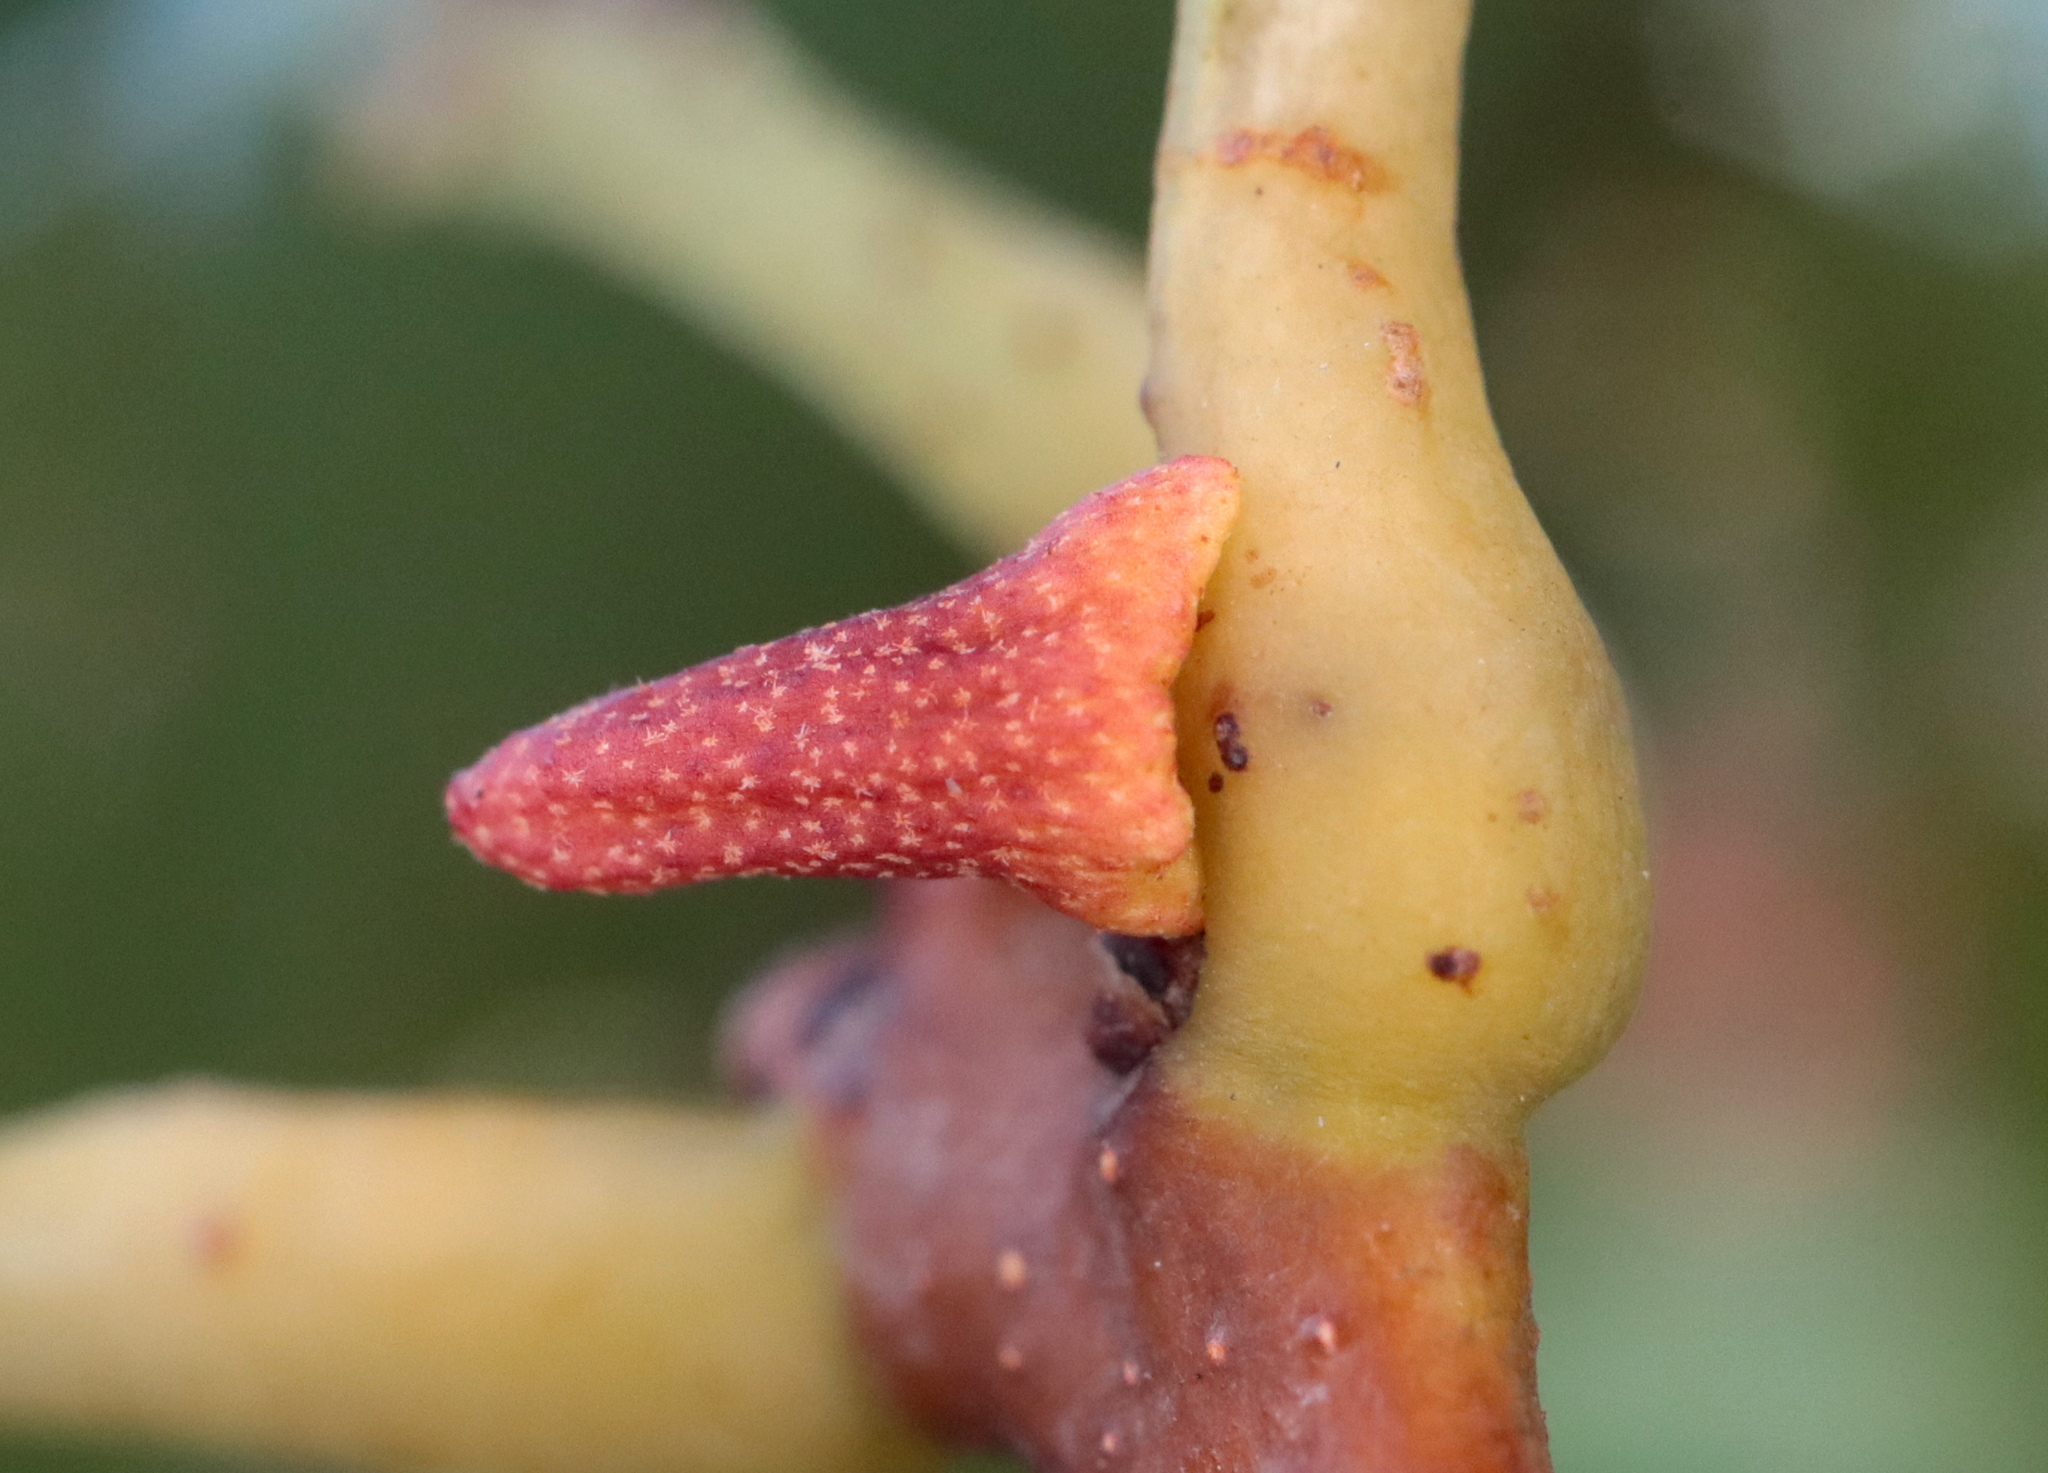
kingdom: Animalia
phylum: Arthropoda
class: Insecta
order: Hymenoptera
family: Cynipidae
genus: Zopheroteras
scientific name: Zopheroteras
